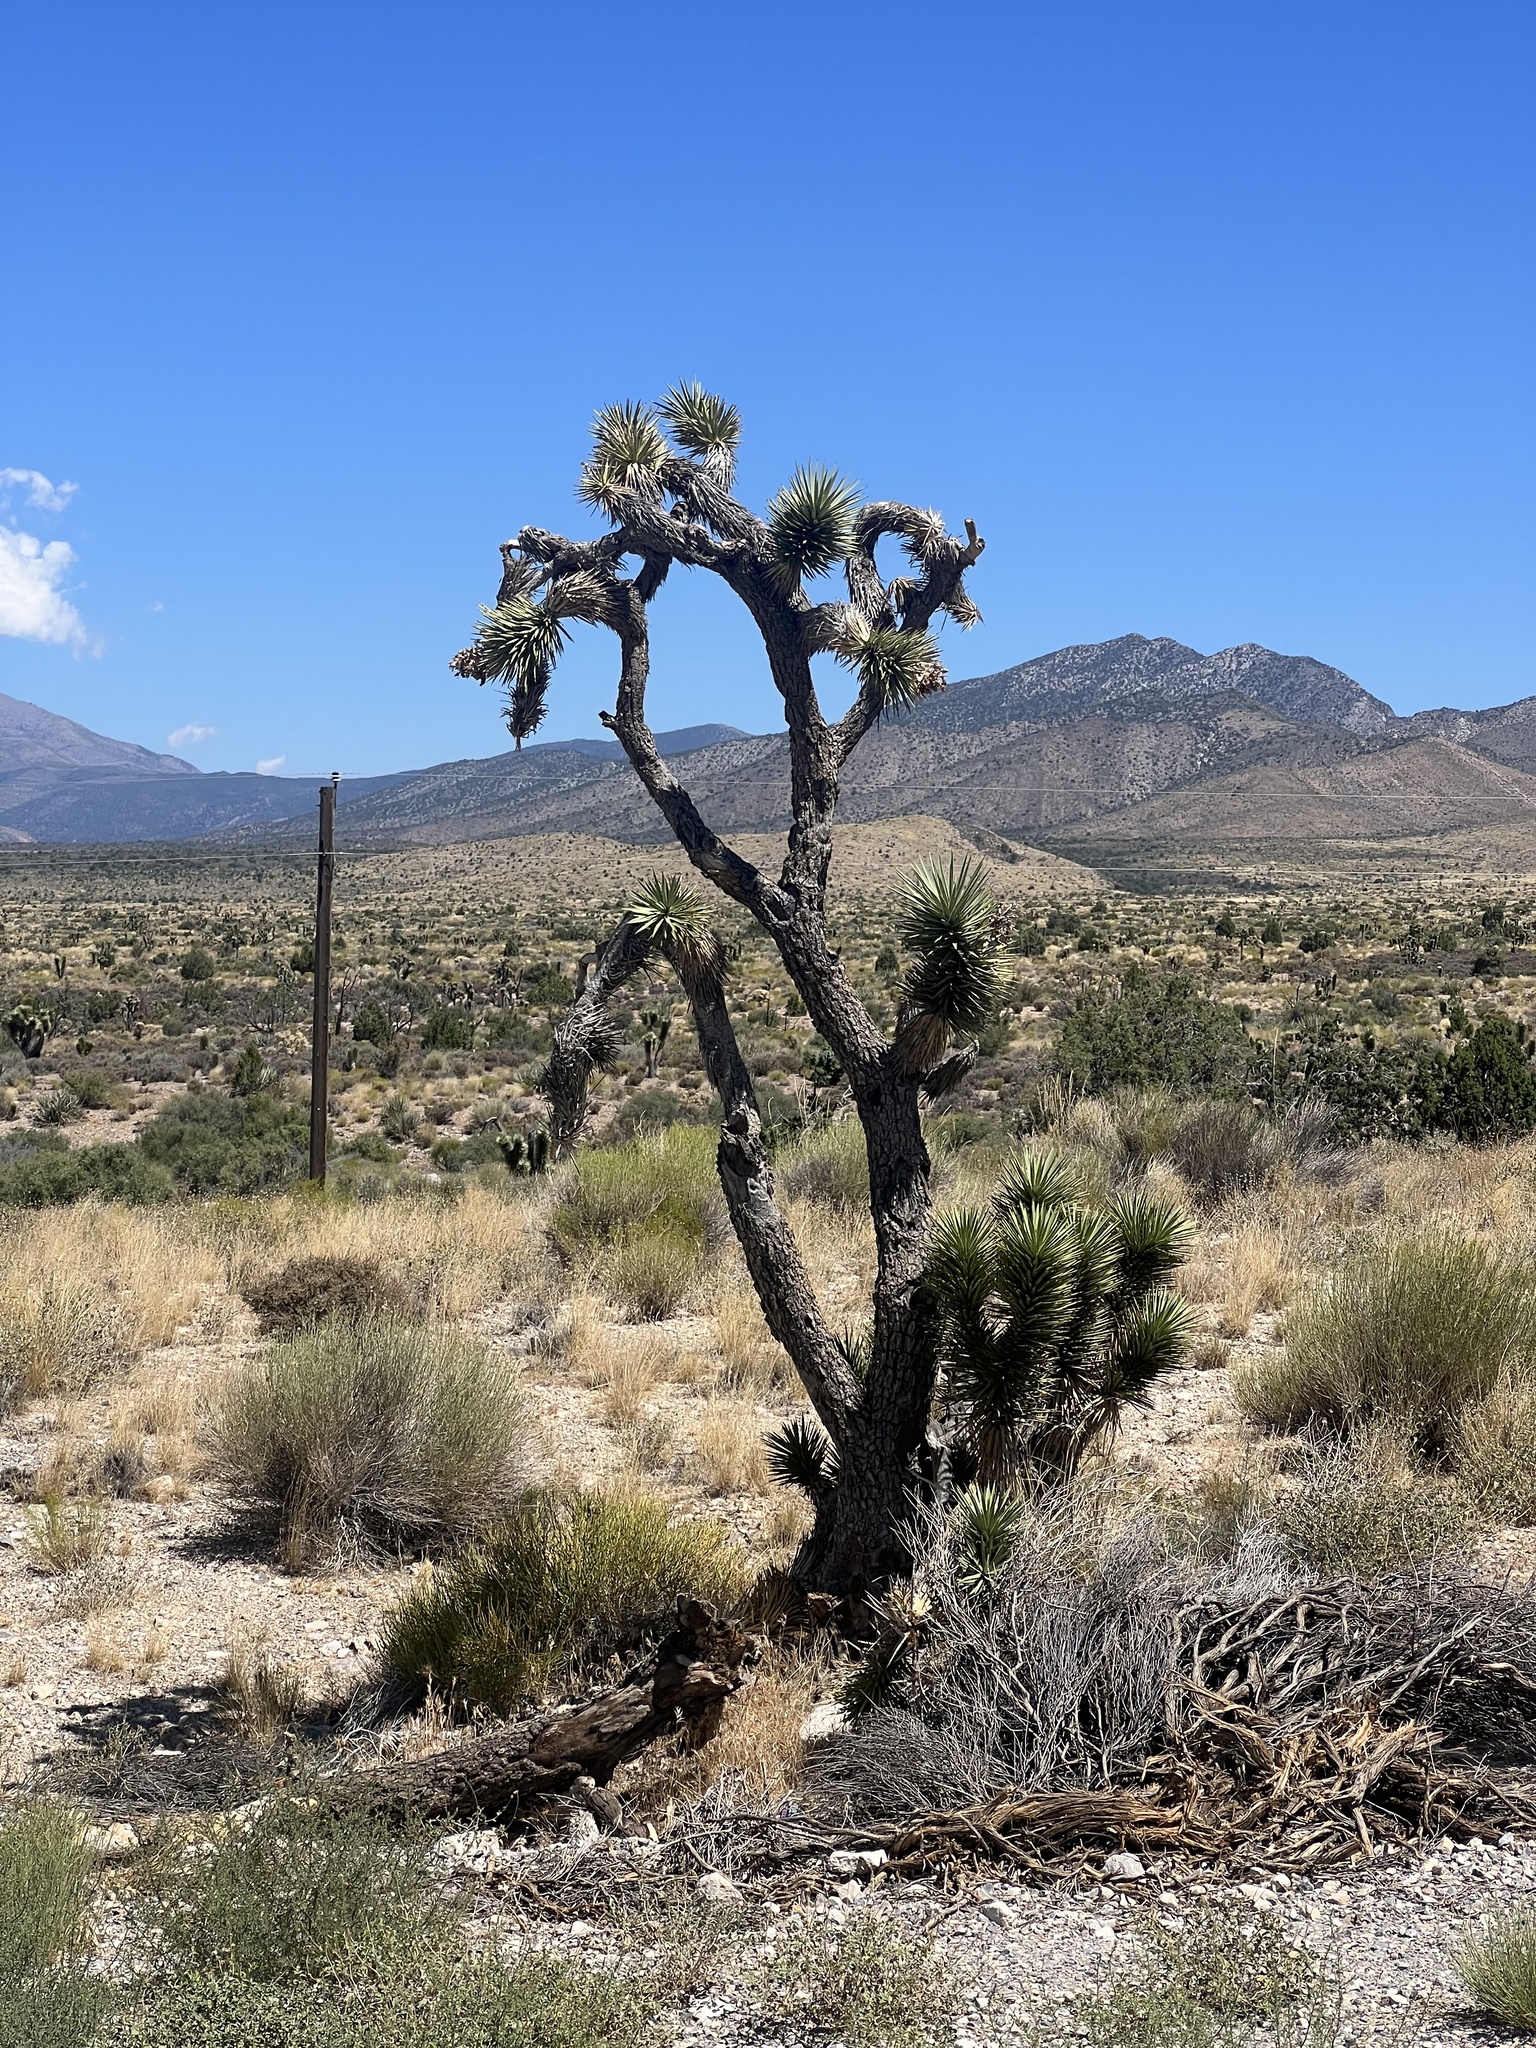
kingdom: Plantae
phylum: Tracheophyta
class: Liliopsida
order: Asparagales
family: Asparagaceae
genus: Yucca
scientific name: Yucca brevifolia
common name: Joshua tree
